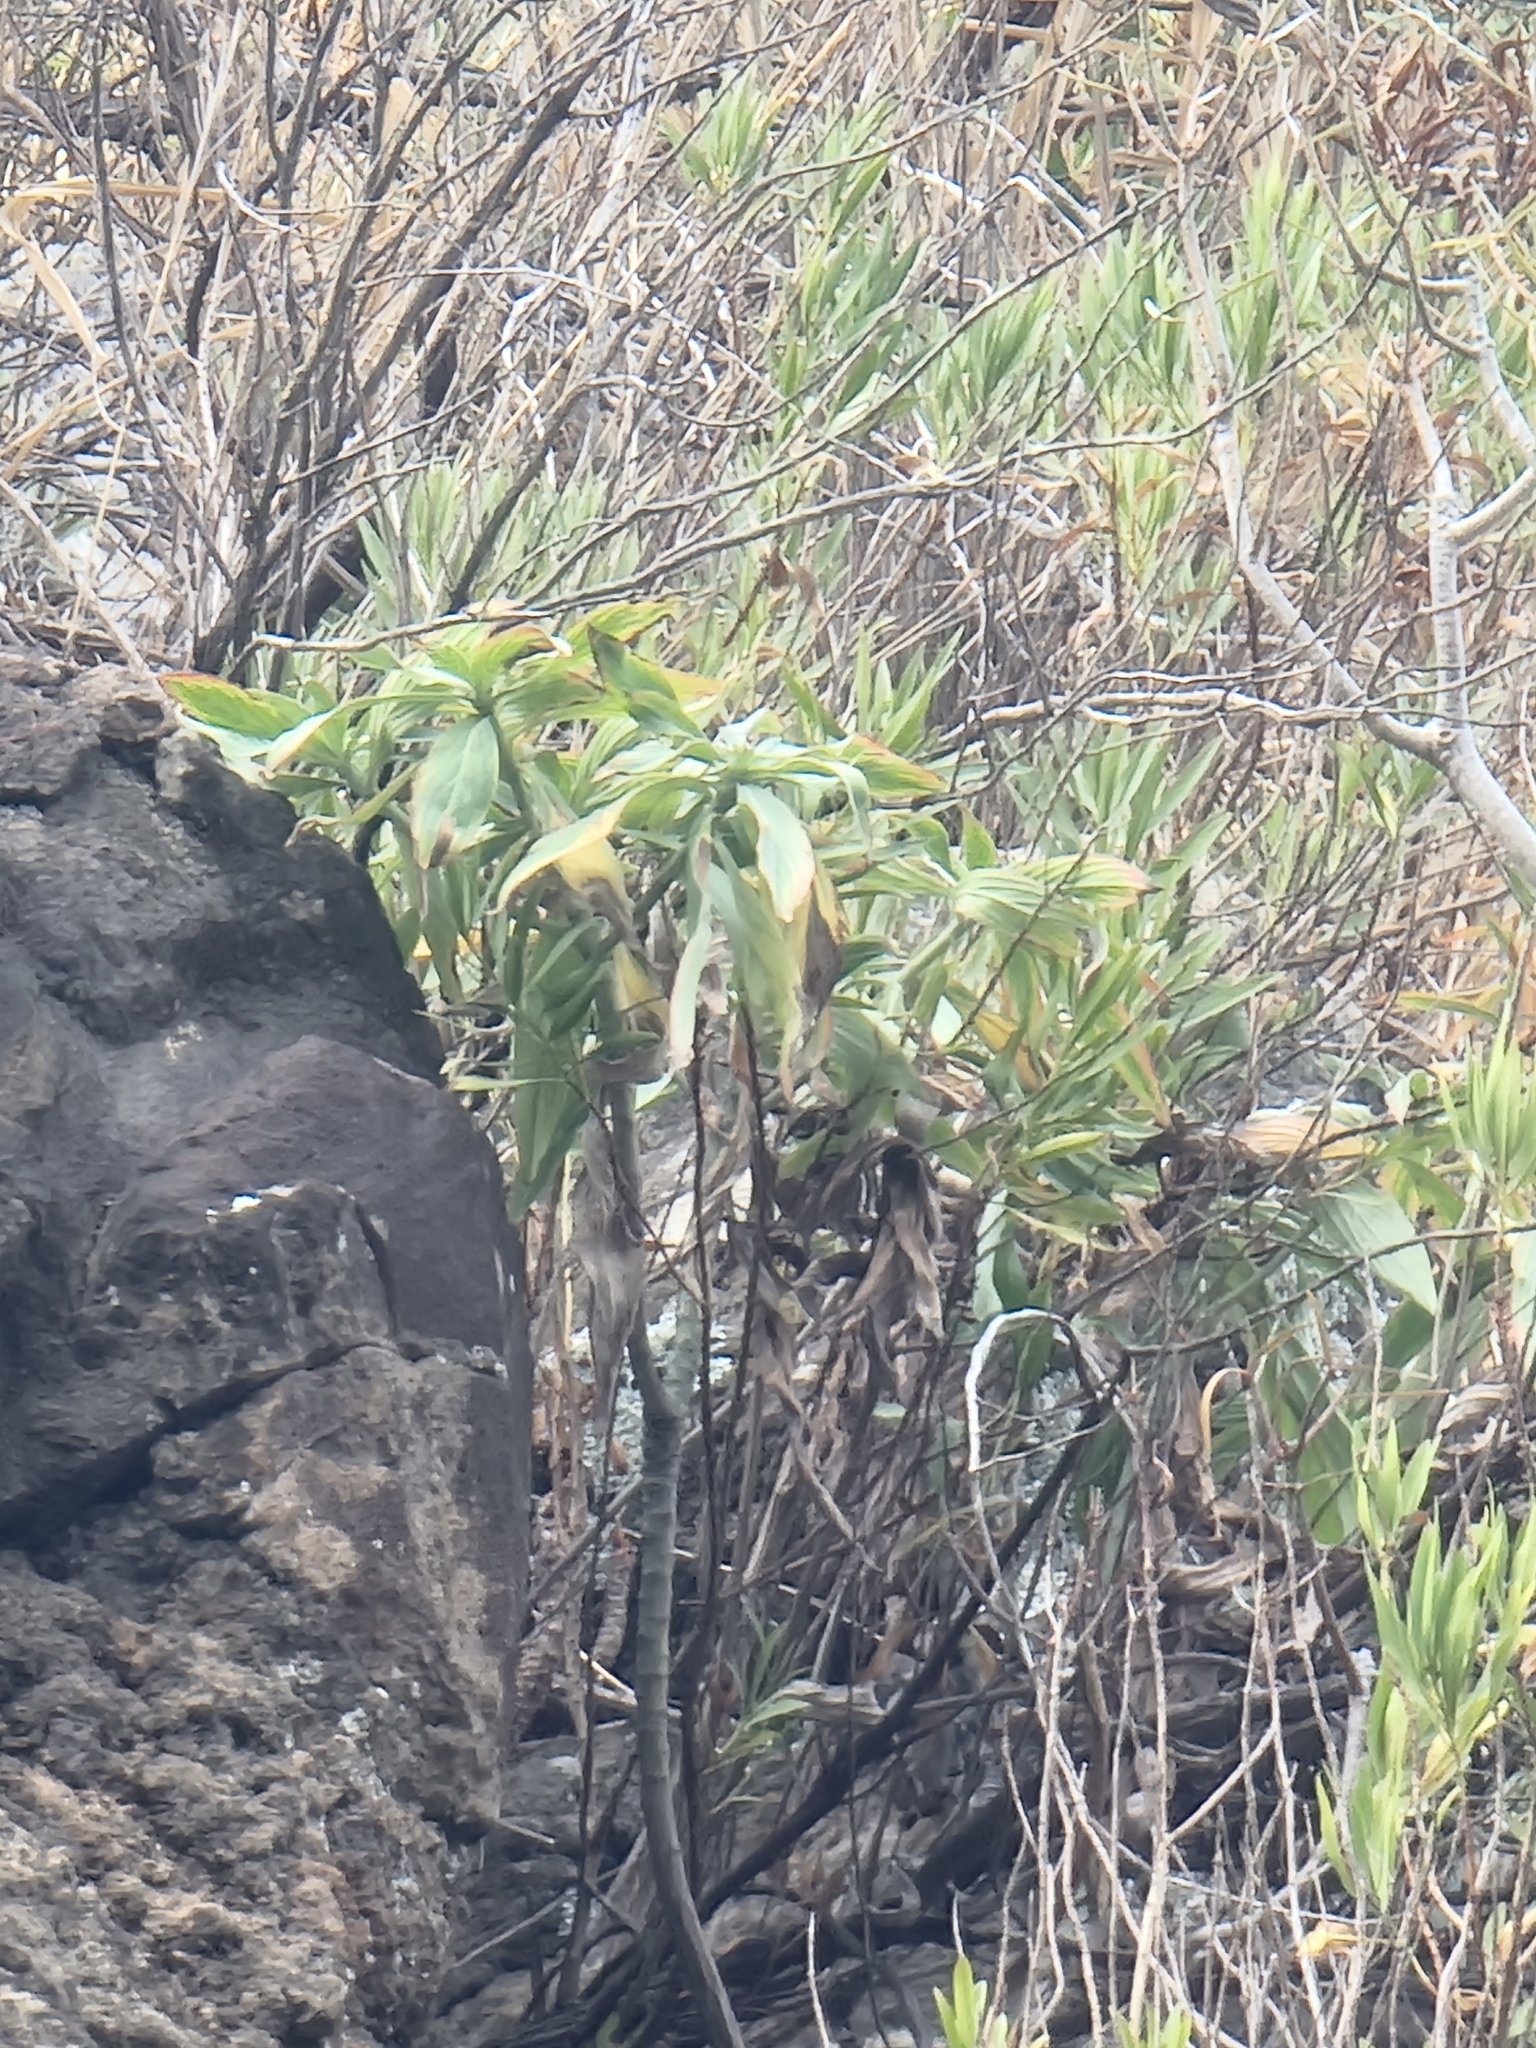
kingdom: Plantae
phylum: Tracheophyta
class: Magnoliopsida
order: Boraginales
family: Boraginaceae
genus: Echium
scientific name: Echium nervosum
